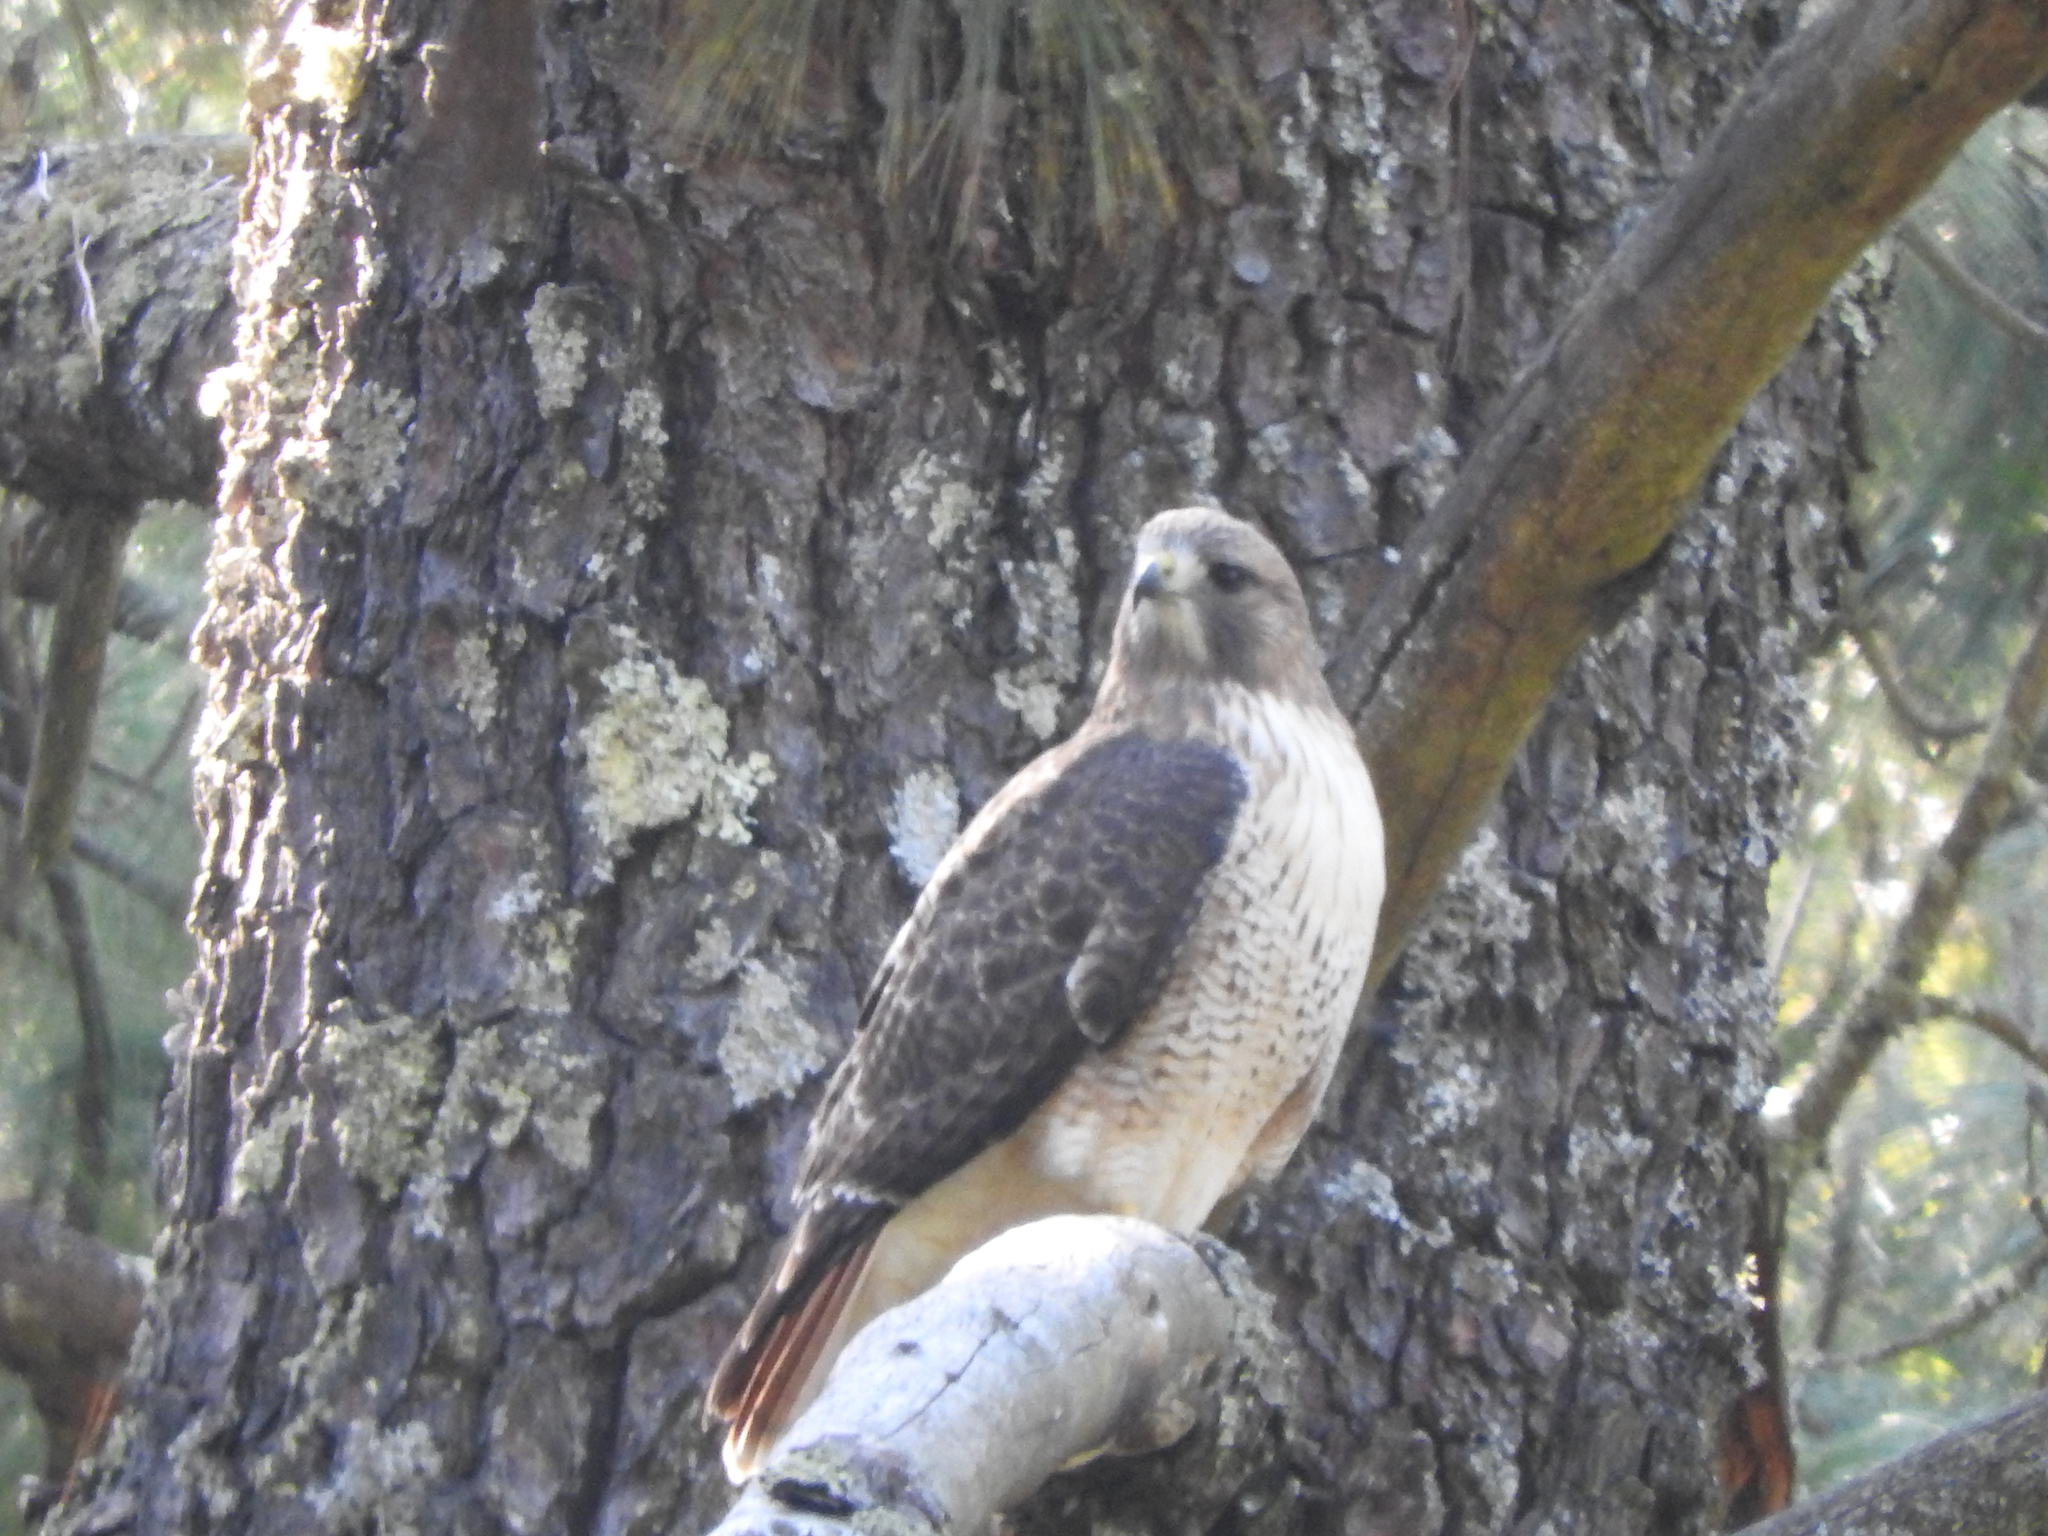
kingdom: Animalia
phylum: Chordata
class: Aves
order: Accipitriformes
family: Accipitridae
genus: Buteo
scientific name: Buteo jamaicensis
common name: Red-tailed hawk
